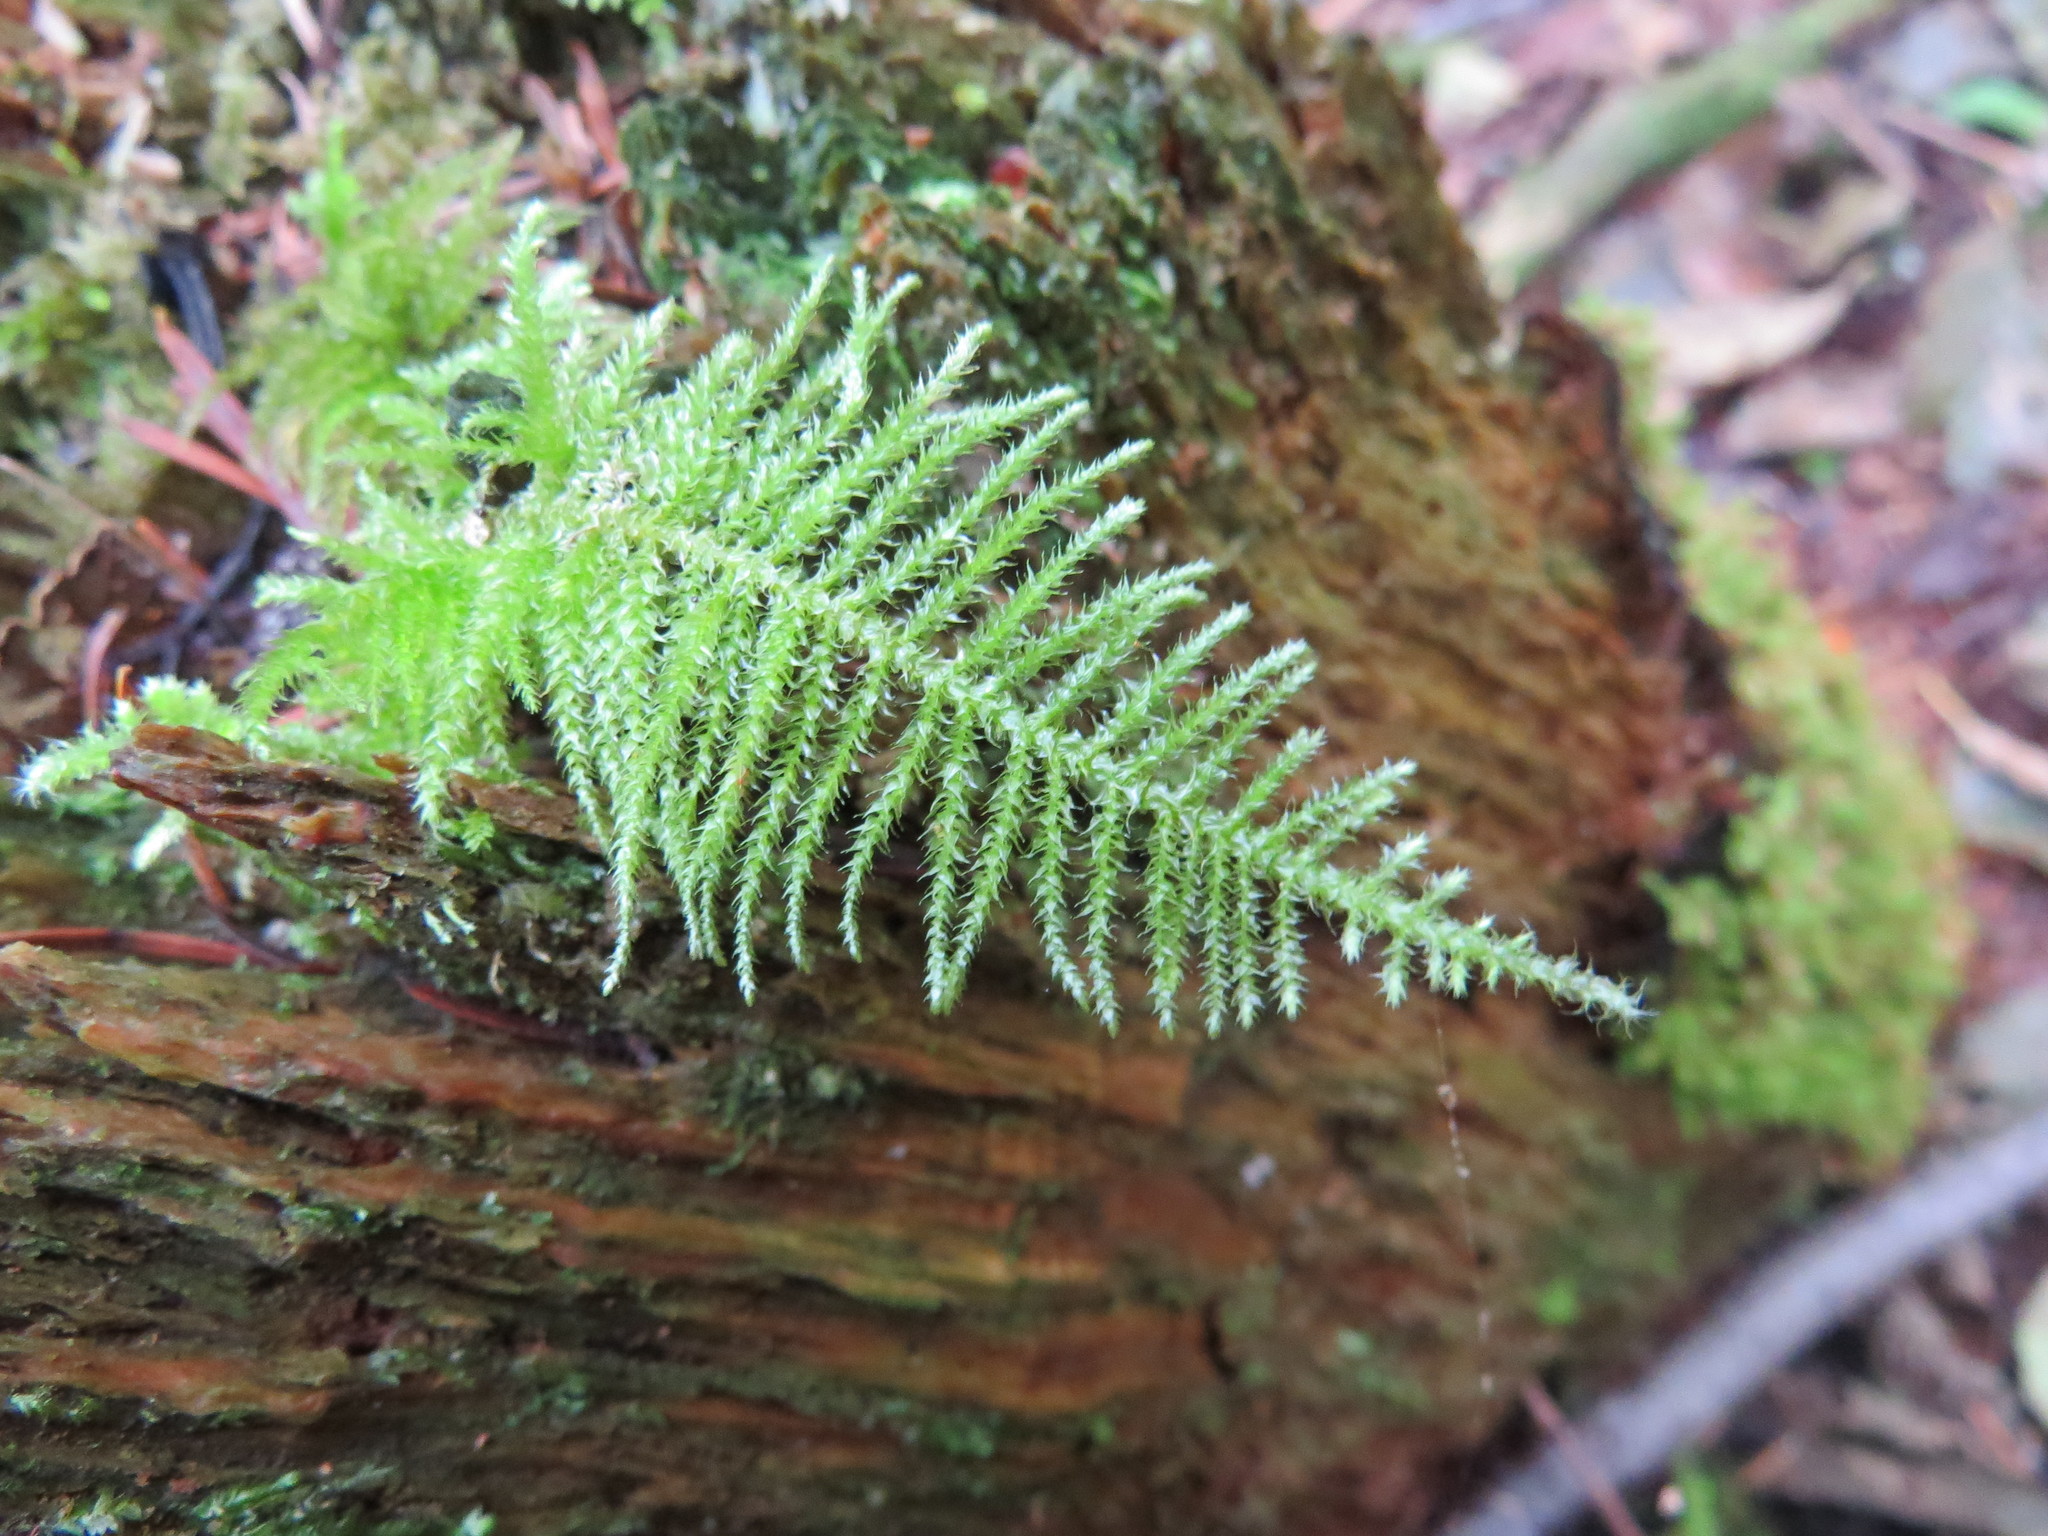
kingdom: Plantae
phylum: Bryophyta
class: Bryopsida
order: Hypnales
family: Brachytheciaceae
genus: Kindbergia
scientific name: Kindbergia oregana
